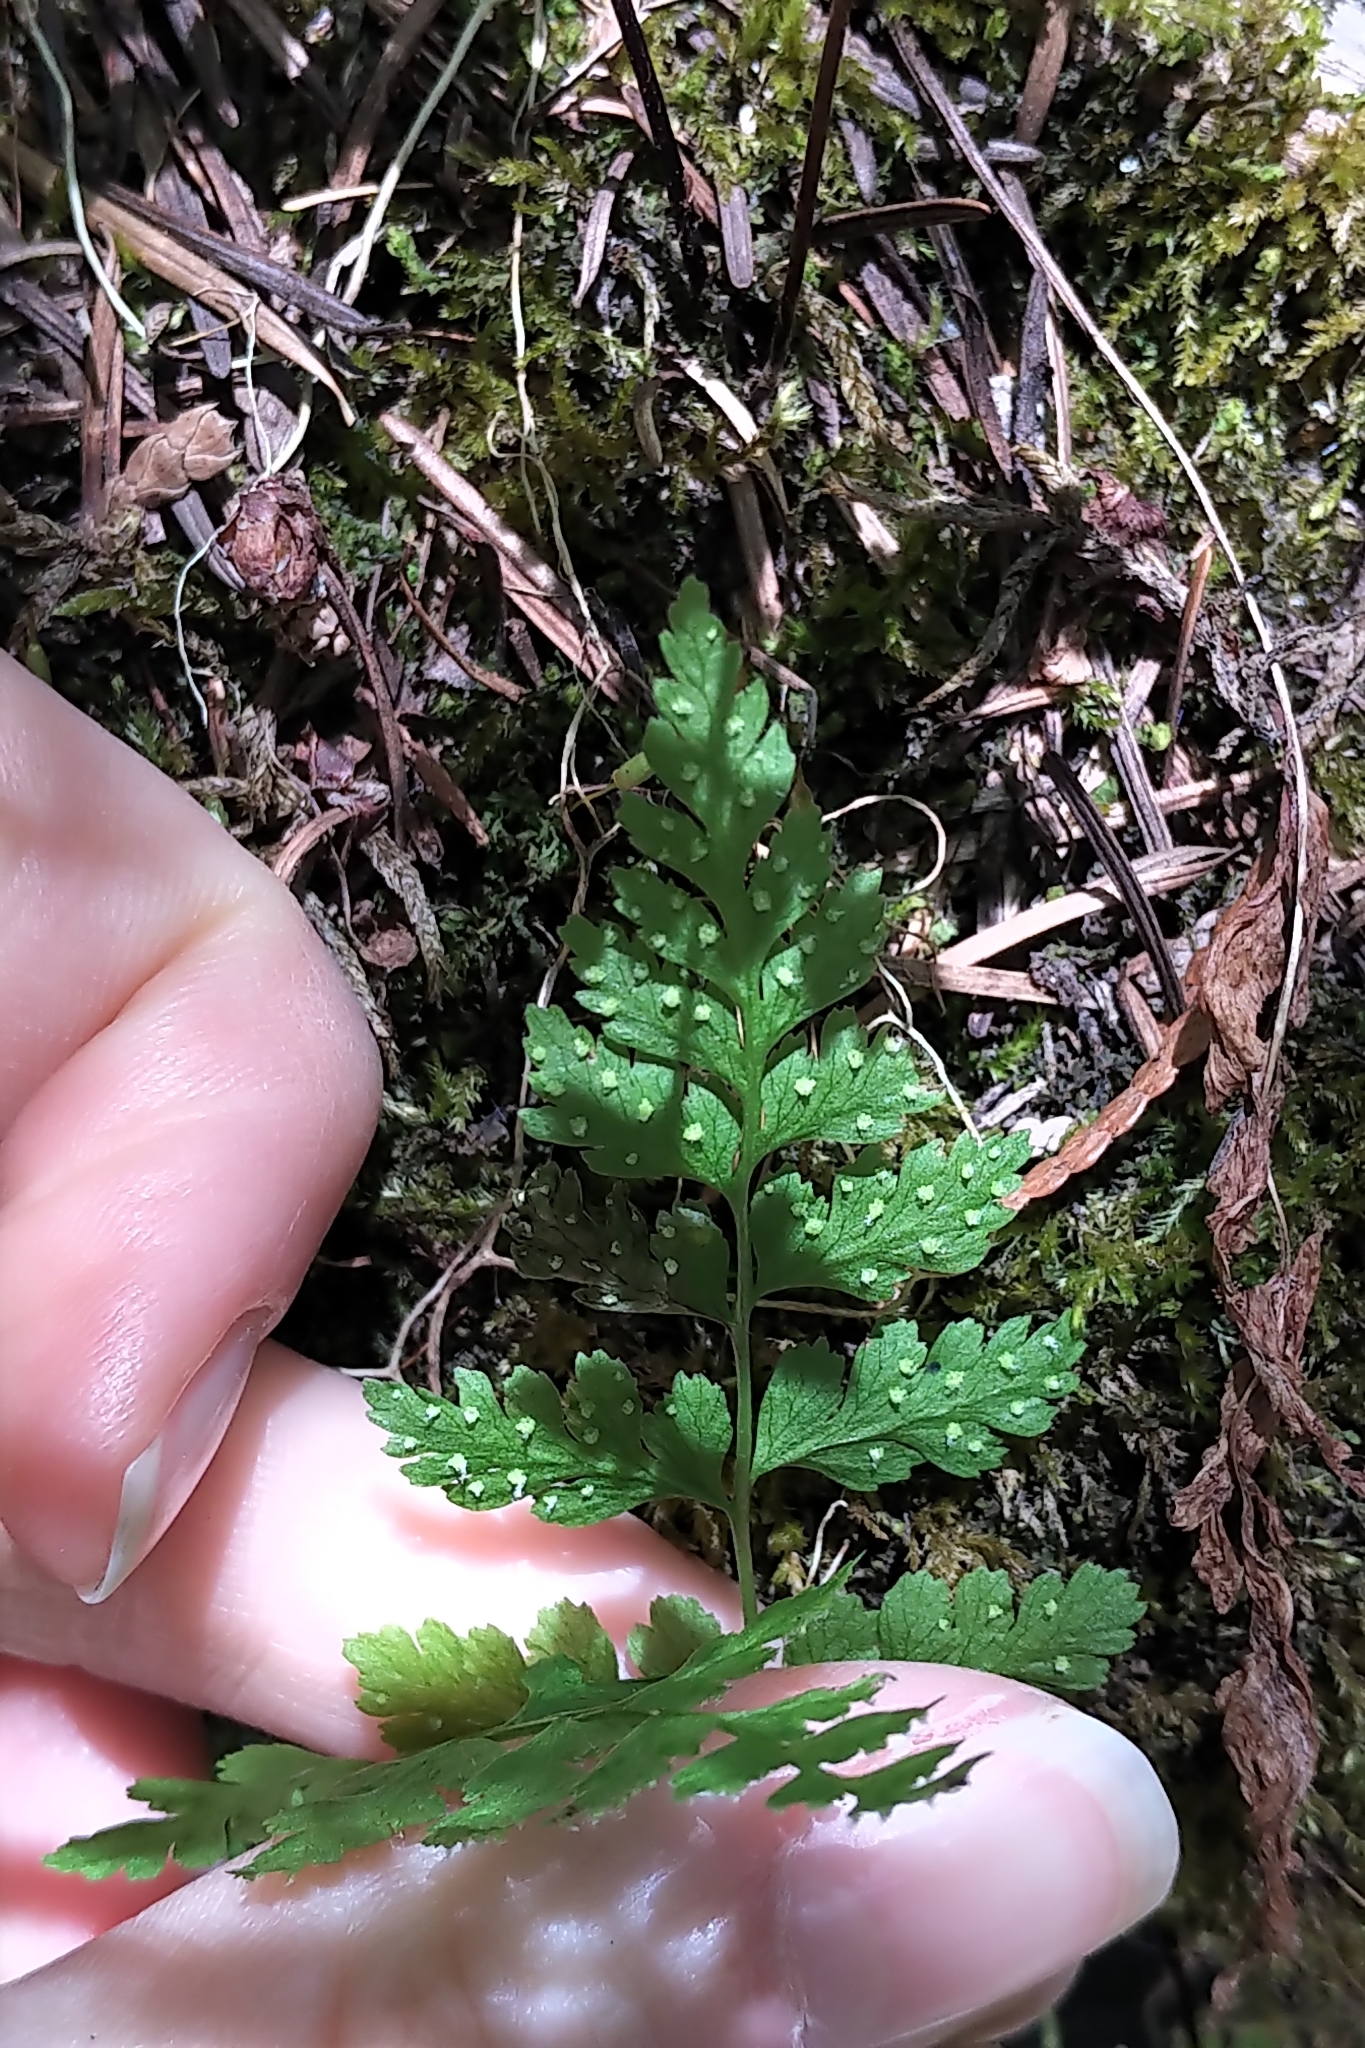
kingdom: Plantae
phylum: Tracheophyta
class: Polypodiopsida
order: Polypodiales
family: Cystopteridaceae
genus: Cystopteris
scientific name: Cystopteris fragilis
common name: Brittle bladder fern
